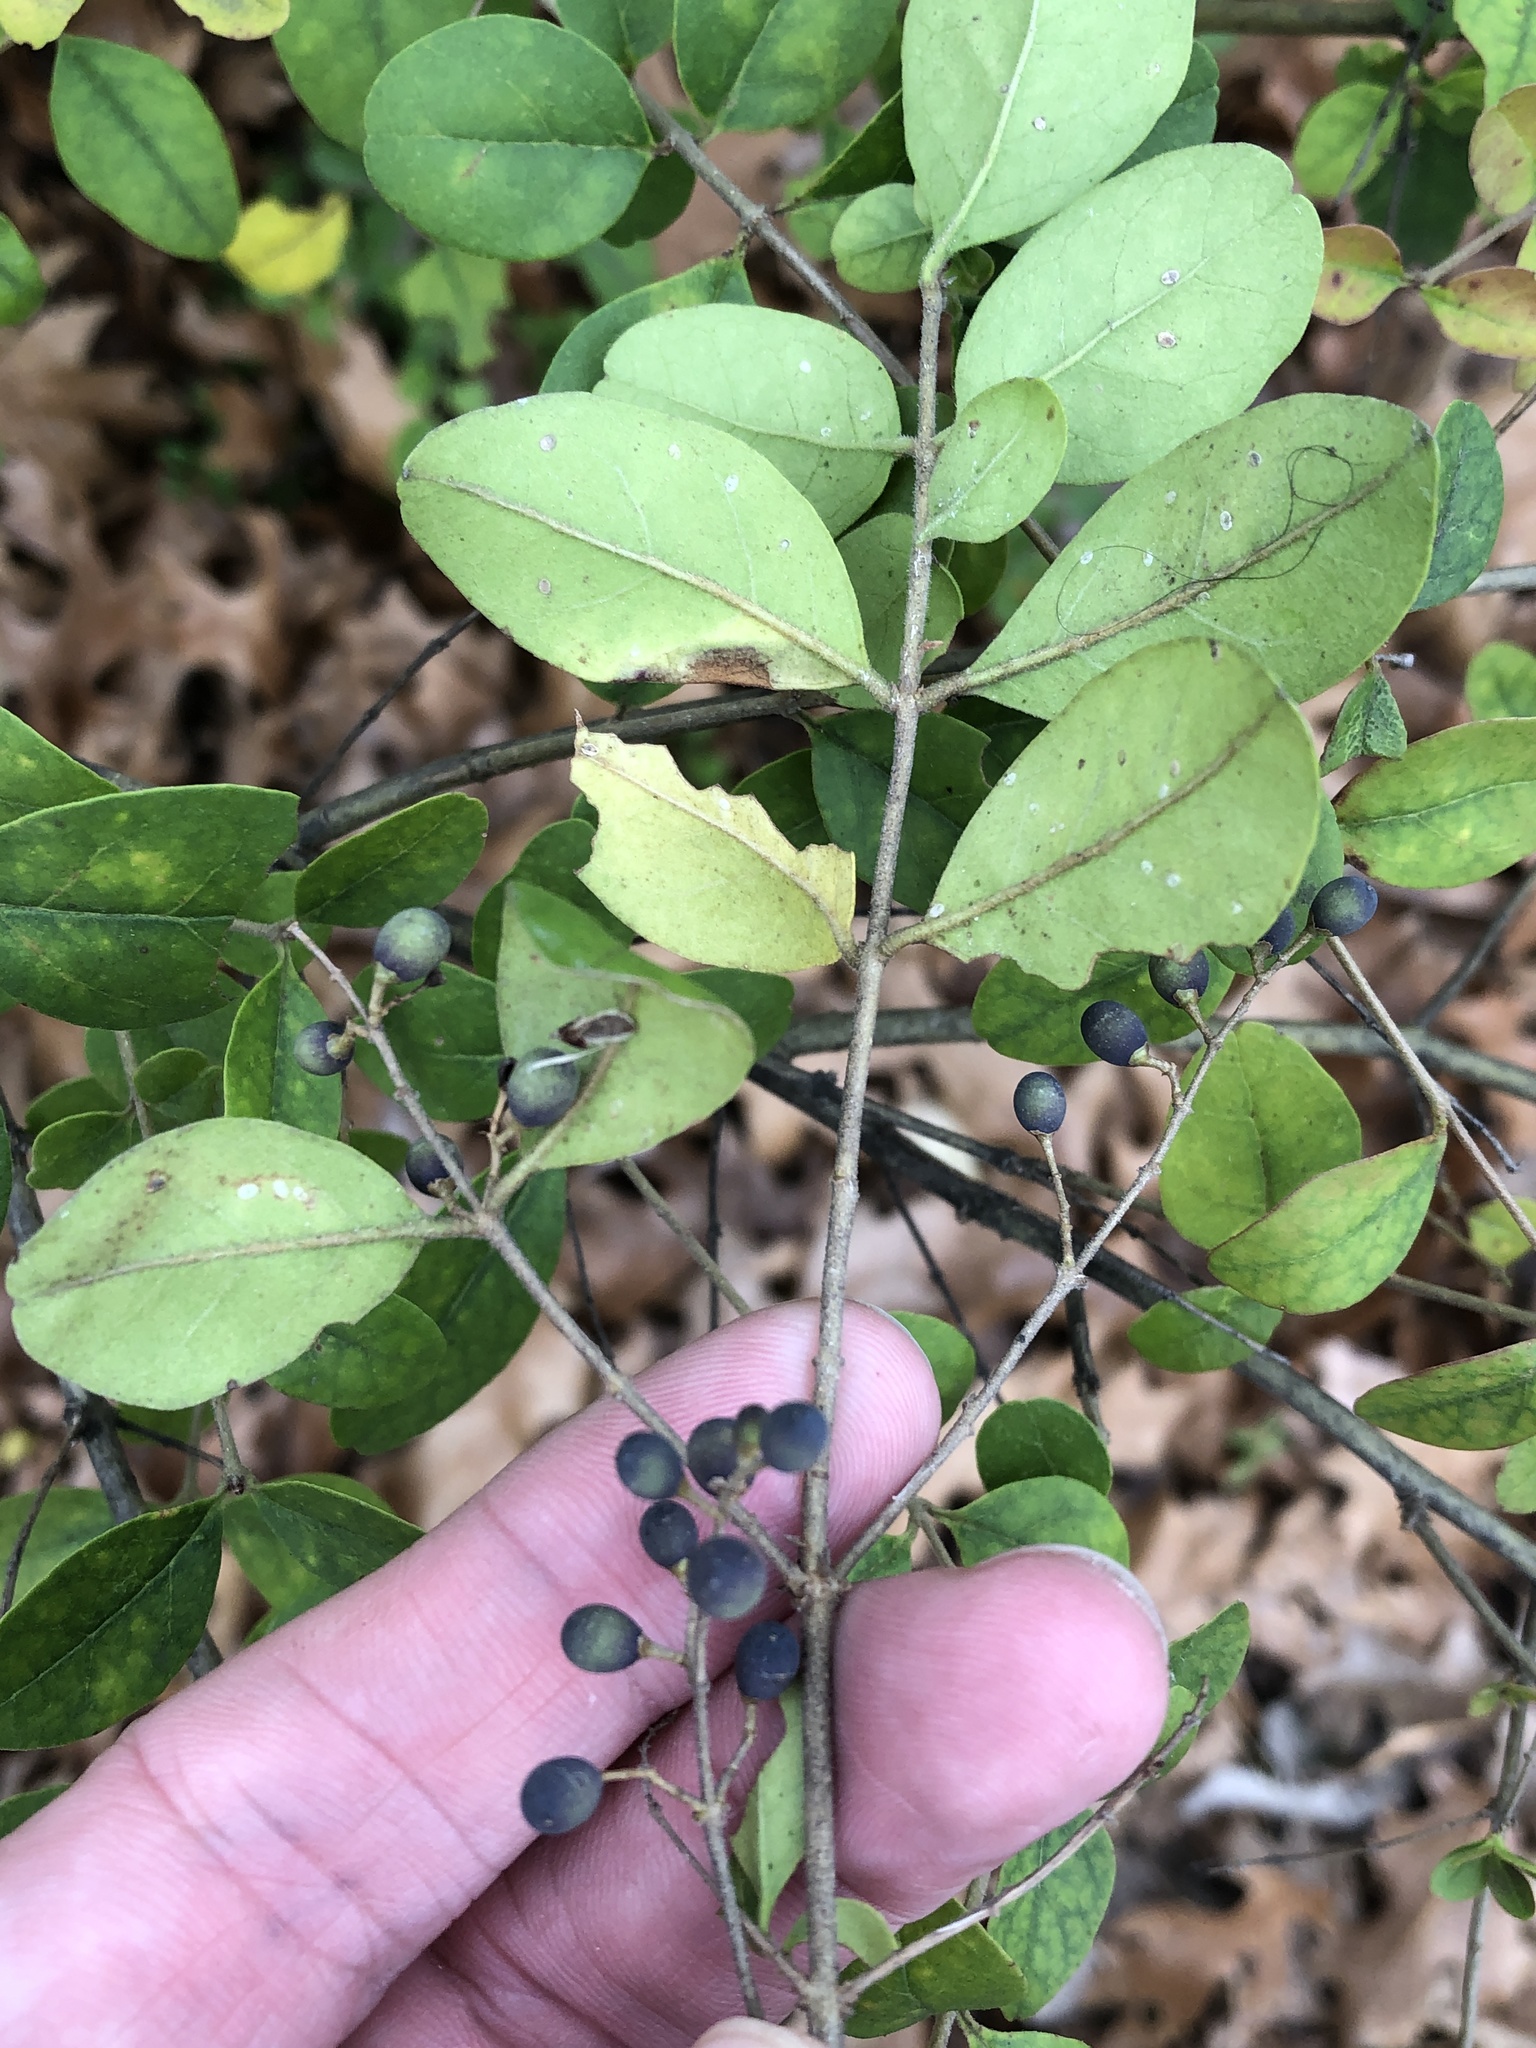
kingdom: Plantae
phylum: Tracheophyta
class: Magnoliopsida
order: Lamiales
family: Oleaceae
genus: Ligustrum
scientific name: Ligustrum sinense
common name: Chinese privet
